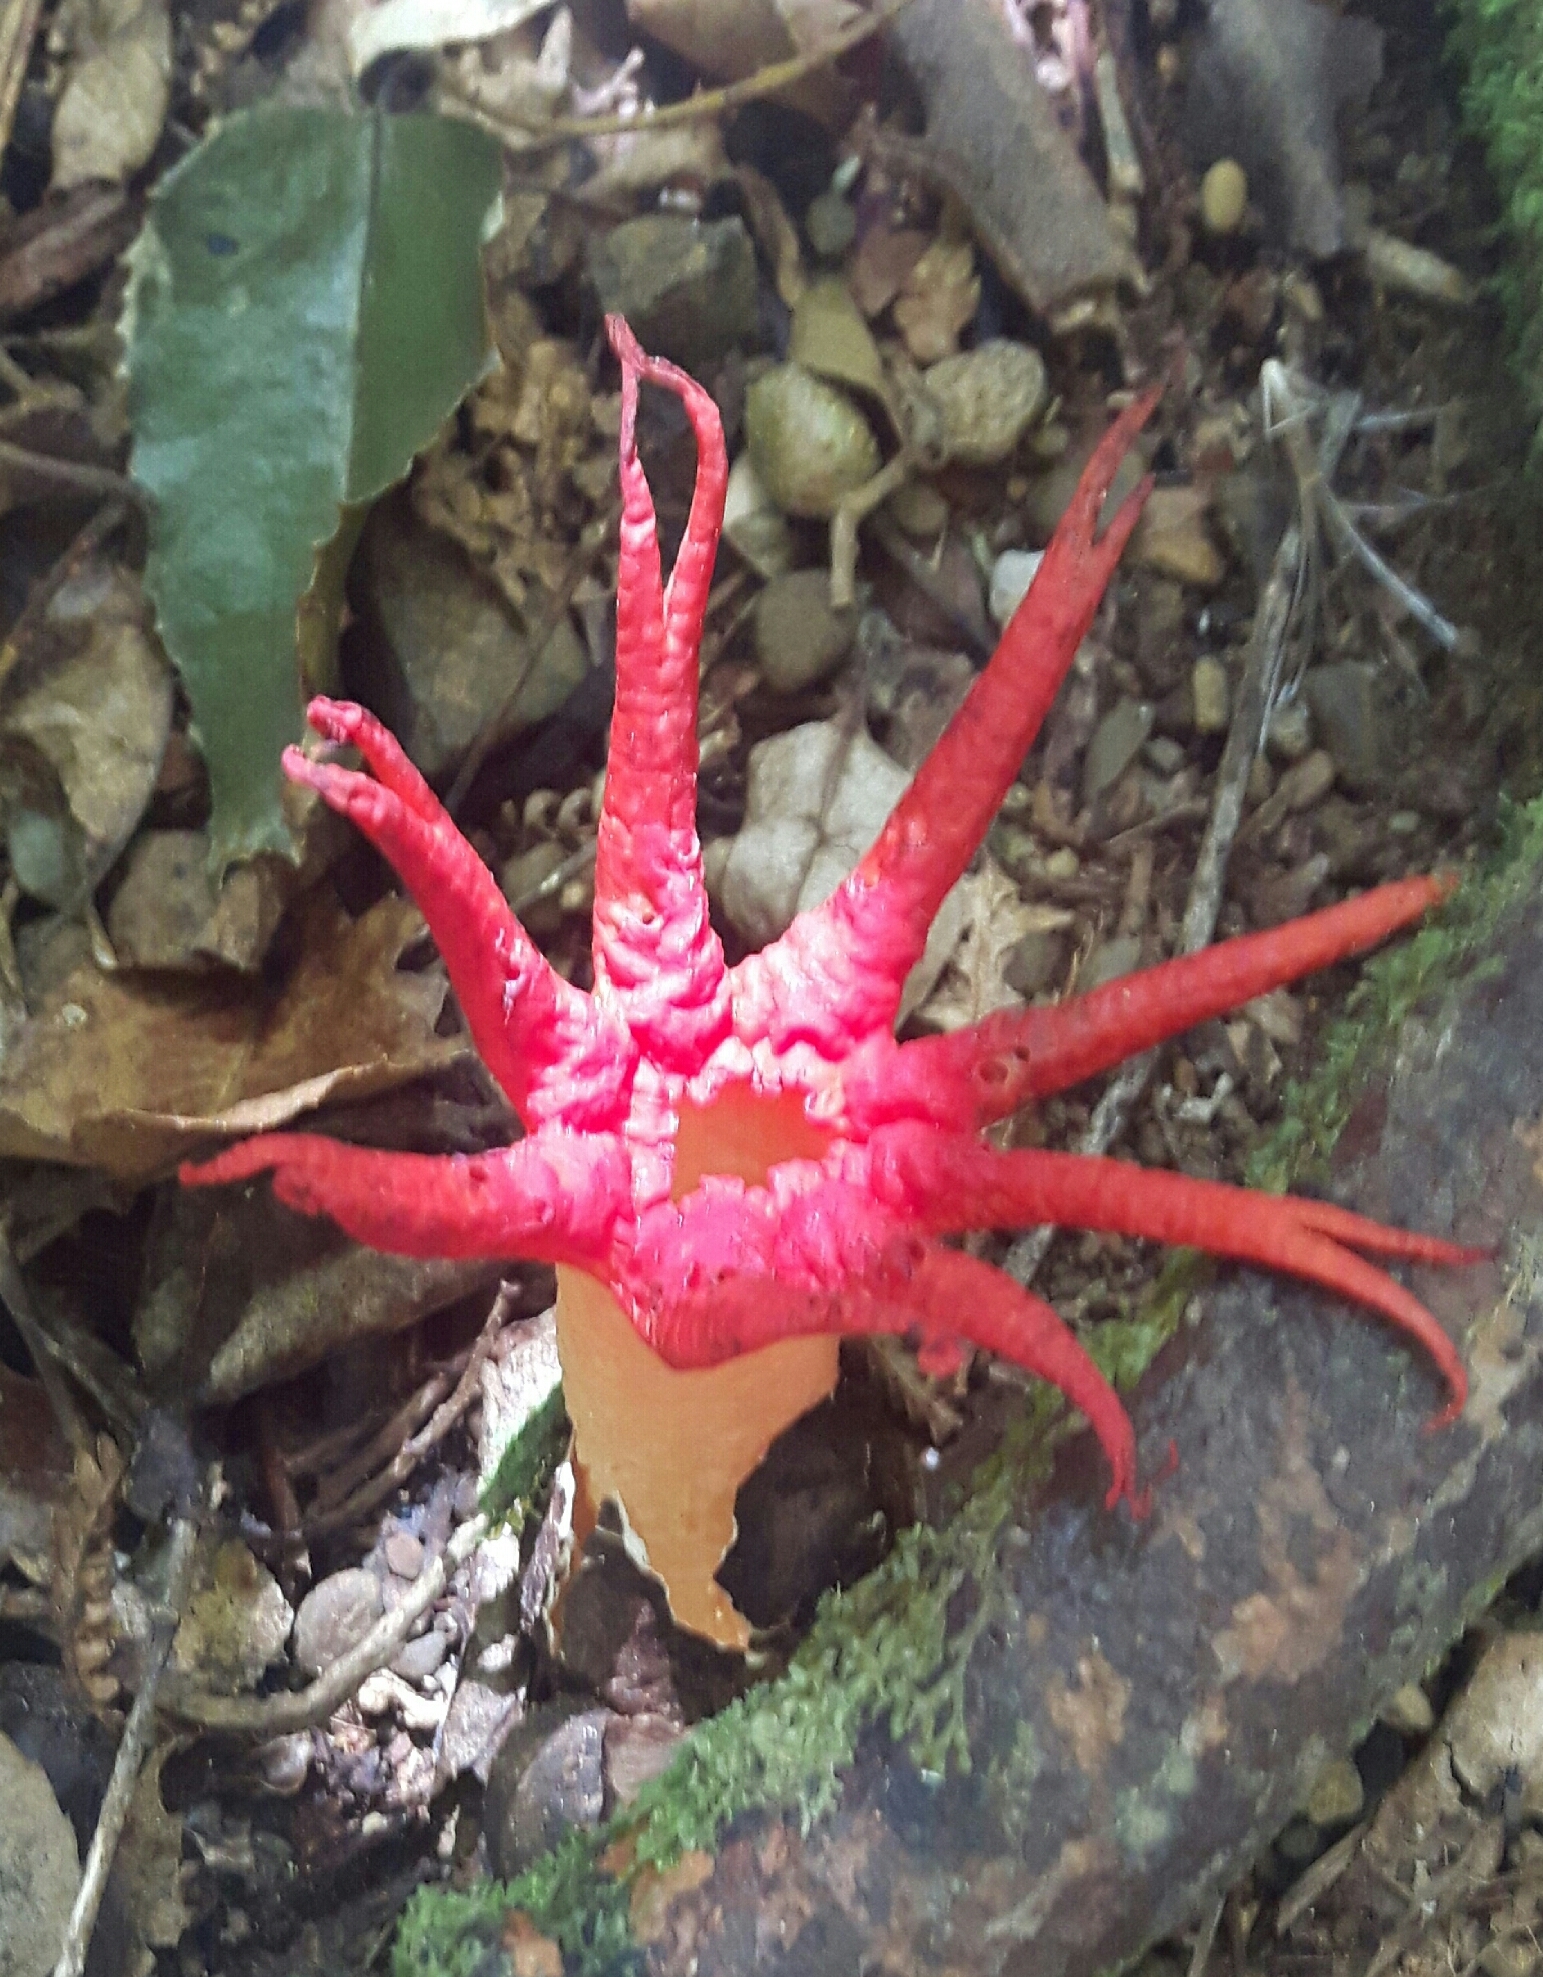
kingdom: Fungi
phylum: Basidiomycota
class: Agaricomycetes
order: Phallales
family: Phallaceae
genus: Aseroe
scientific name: Aseroe rubra
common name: Starfish fungus
